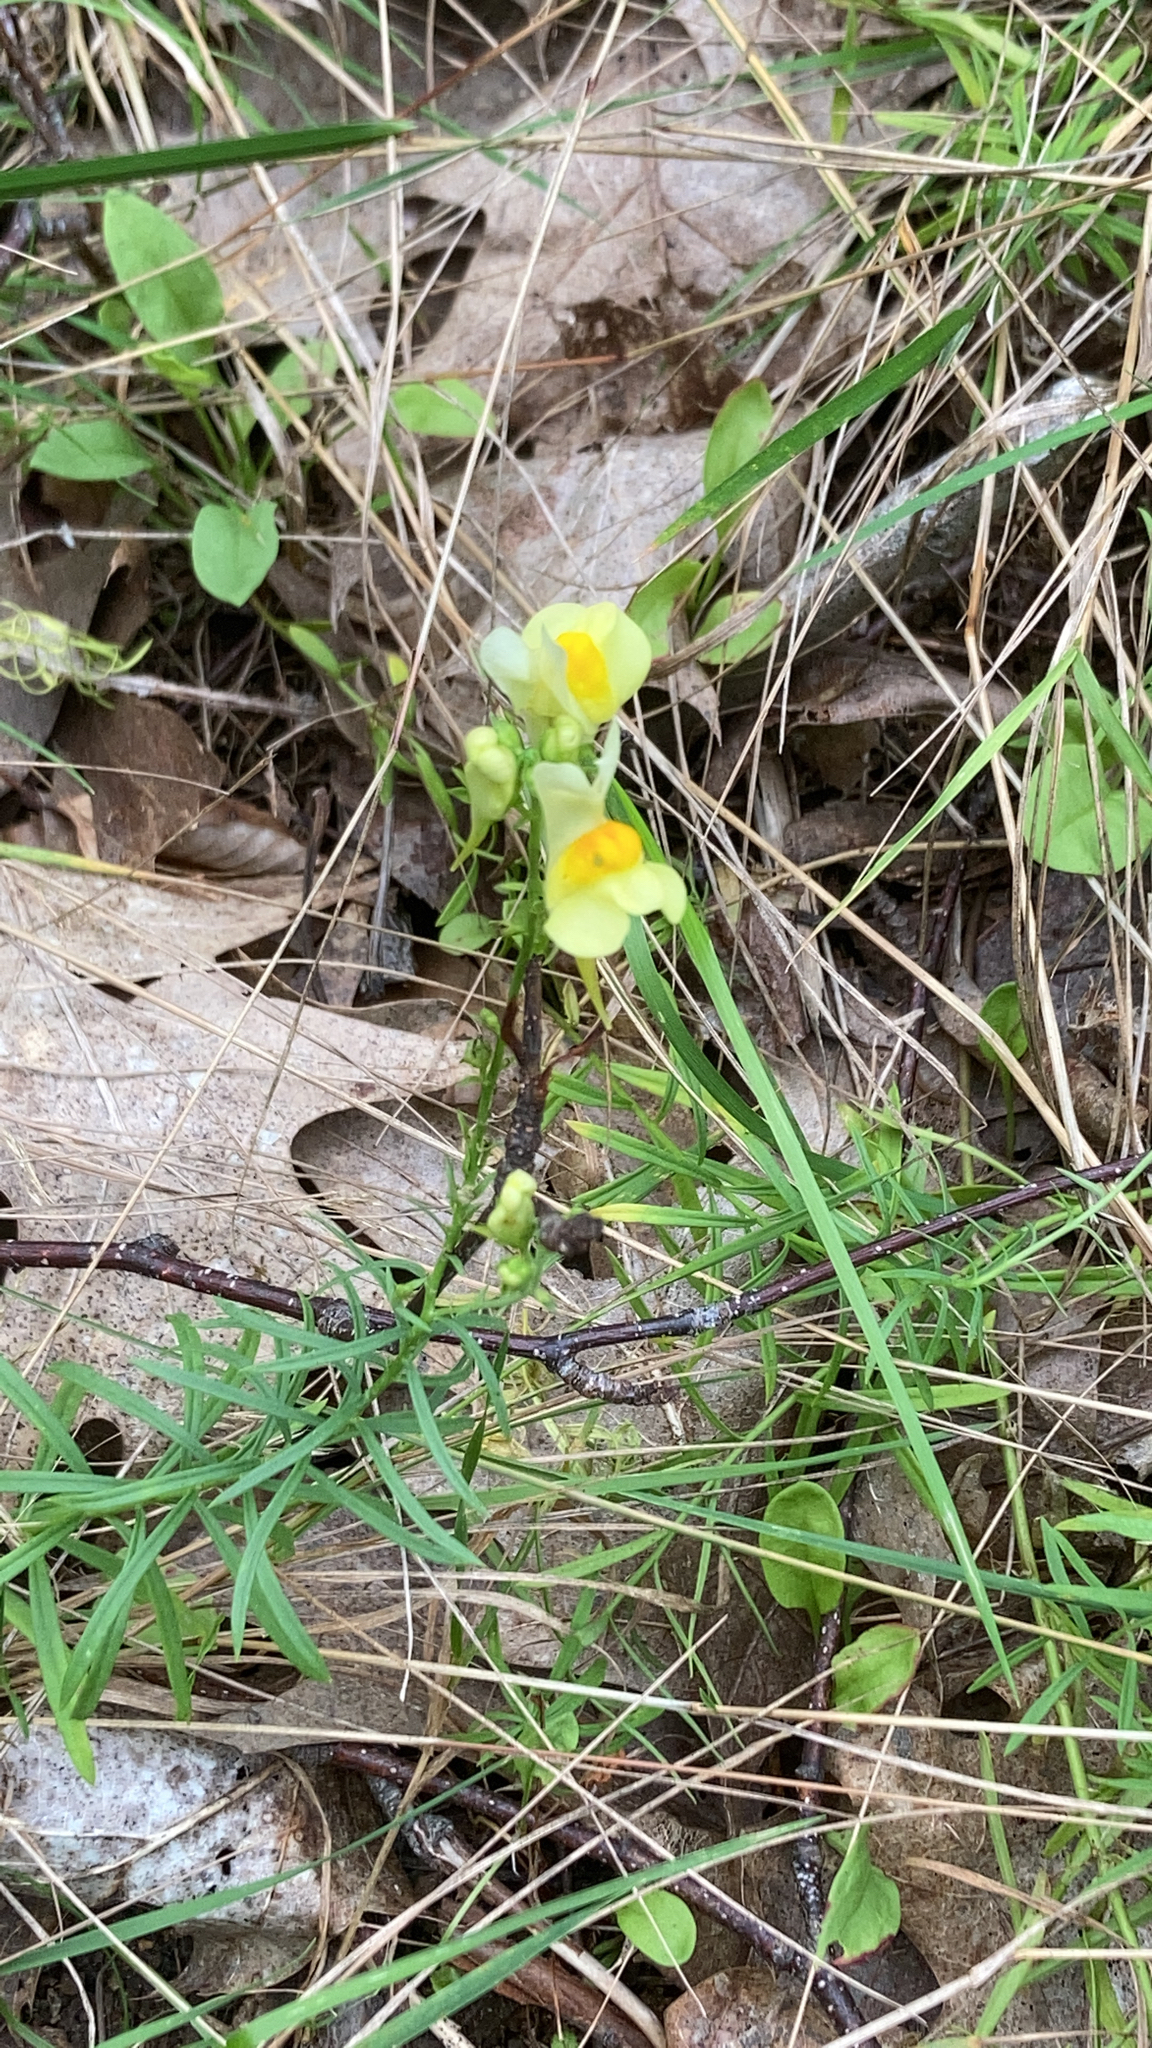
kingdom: Plantae
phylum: Tracheophyta
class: Magnoliopsida
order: Lamiales
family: Plantaginaceae
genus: Linaria
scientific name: Linaria vulgaris
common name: Butter and eggs
